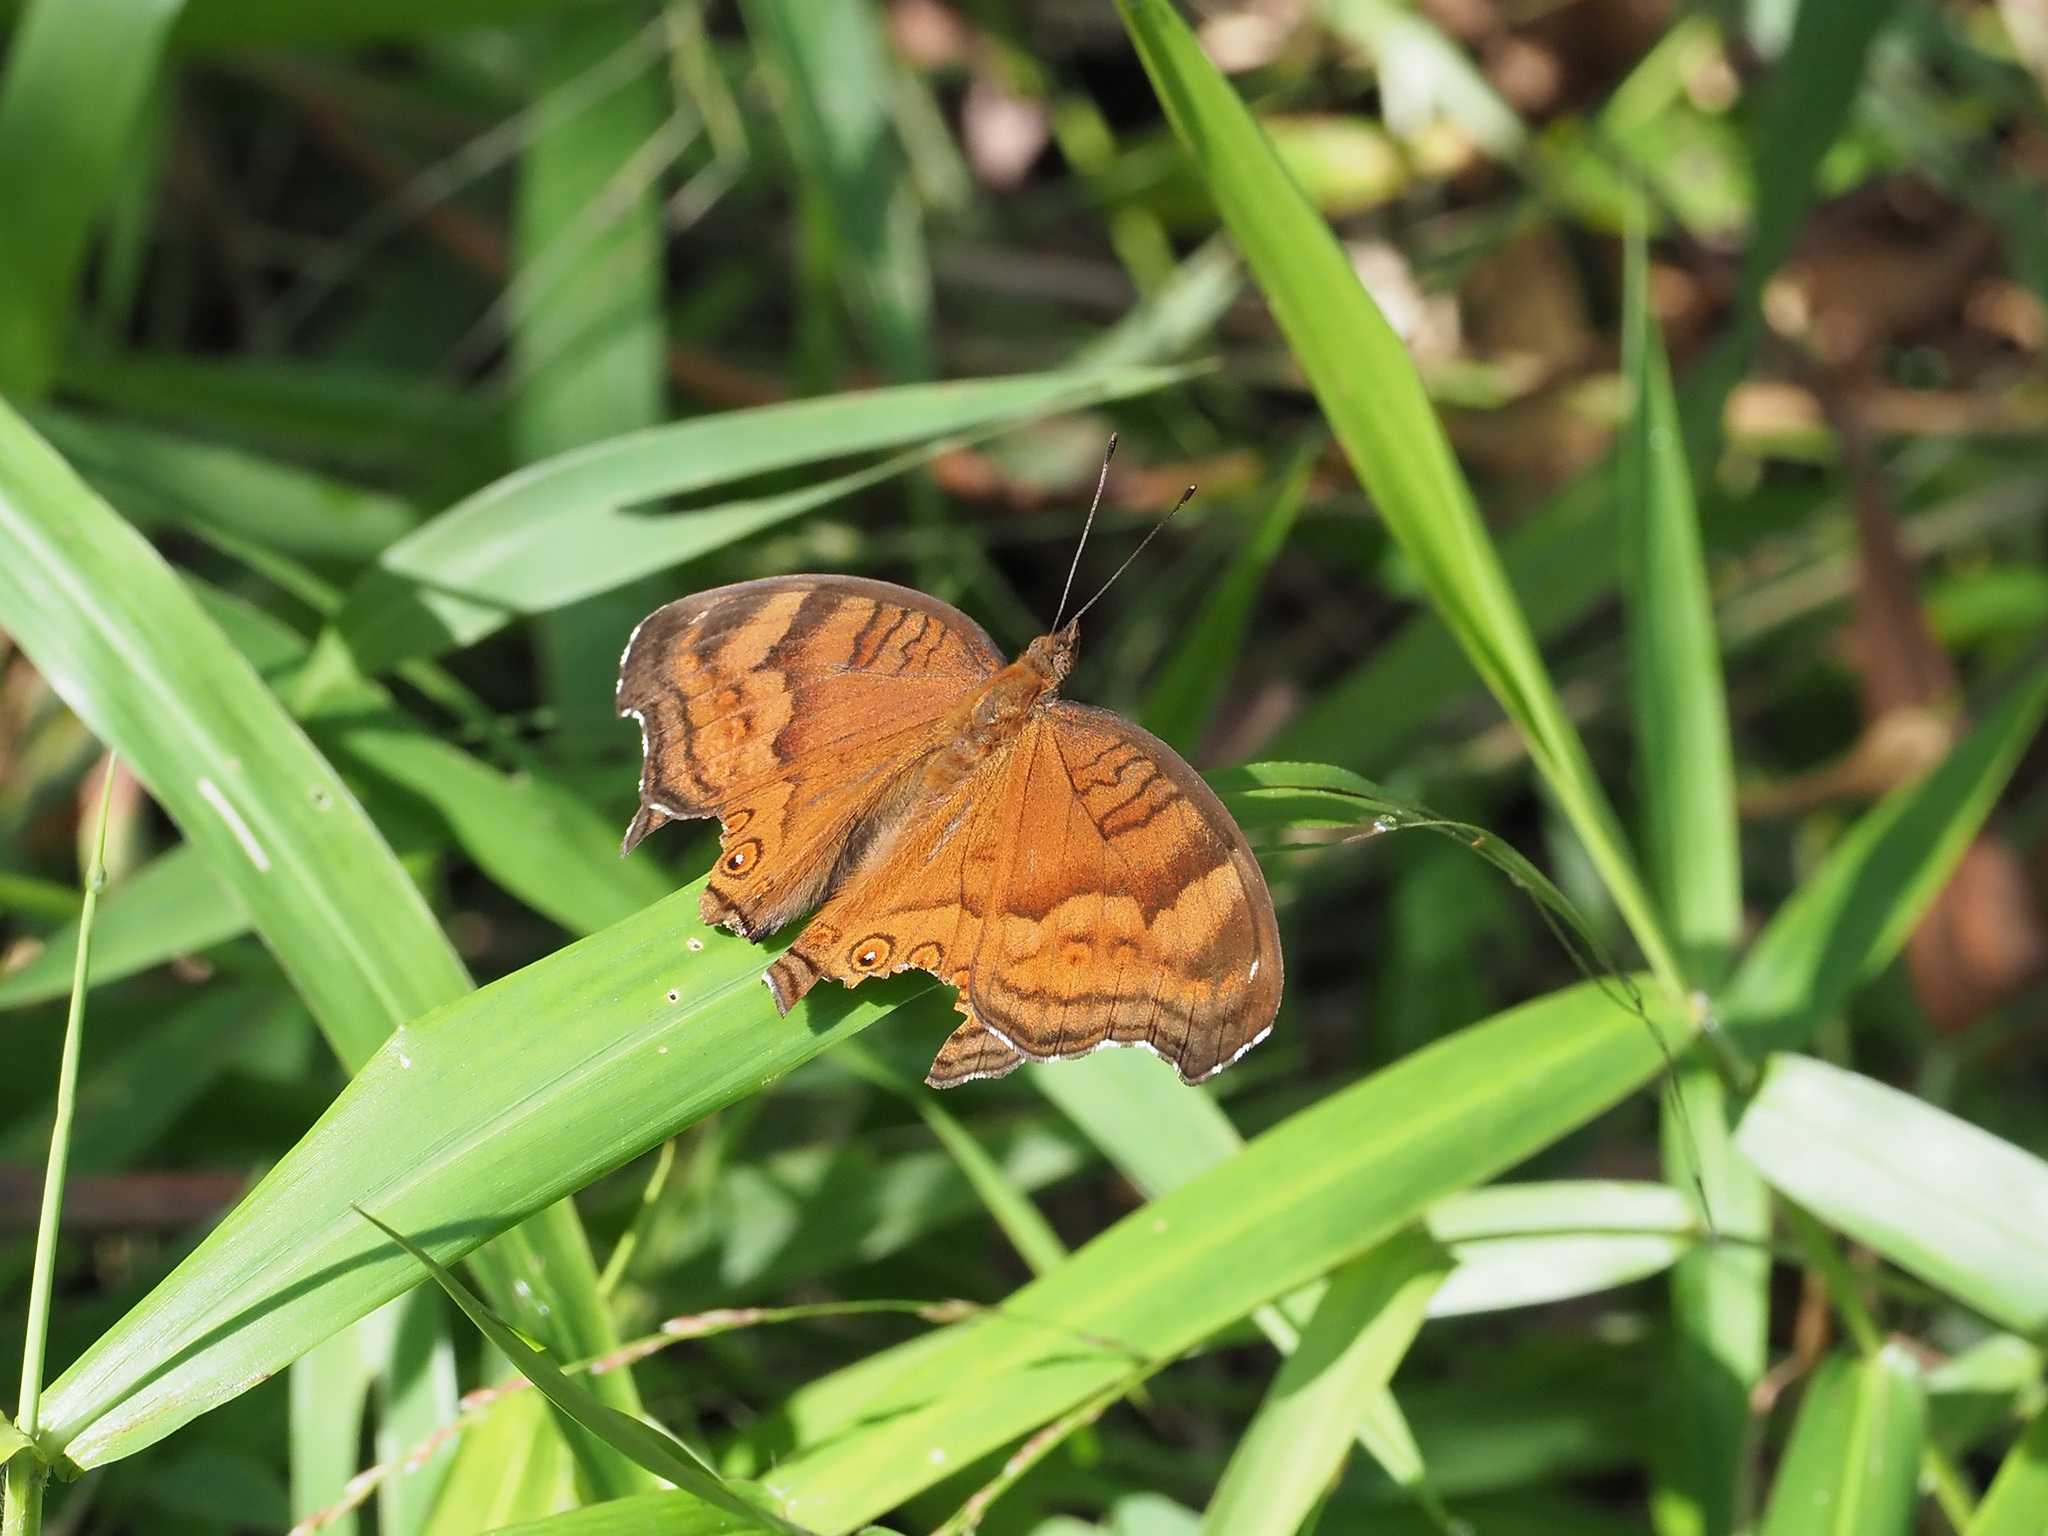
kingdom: Animalia
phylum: Arthropoda
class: Insecta
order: Lepidoptera
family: Nymphalidae
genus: Junonia
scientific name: Junonia hedonia
